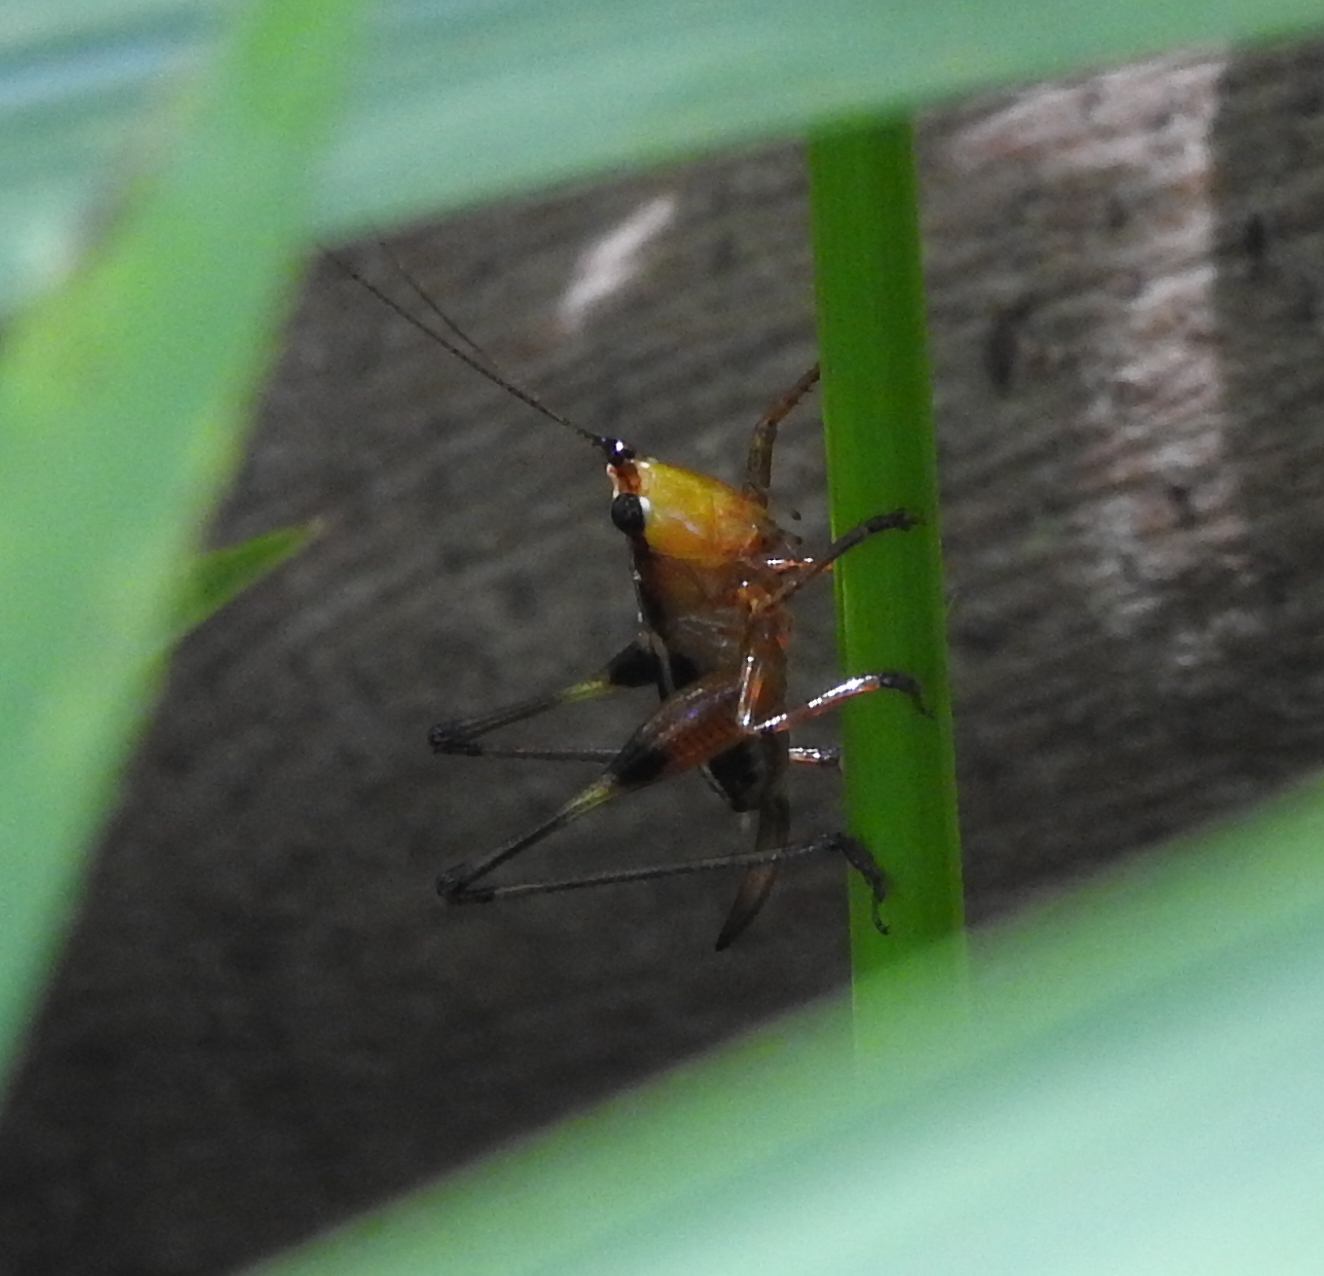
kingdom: Animalia
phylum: Arthropoda
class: Insecta
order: Orthoptera
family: Tettigoniidae
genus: Conocephalus
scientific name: Conocephalus melaenus
